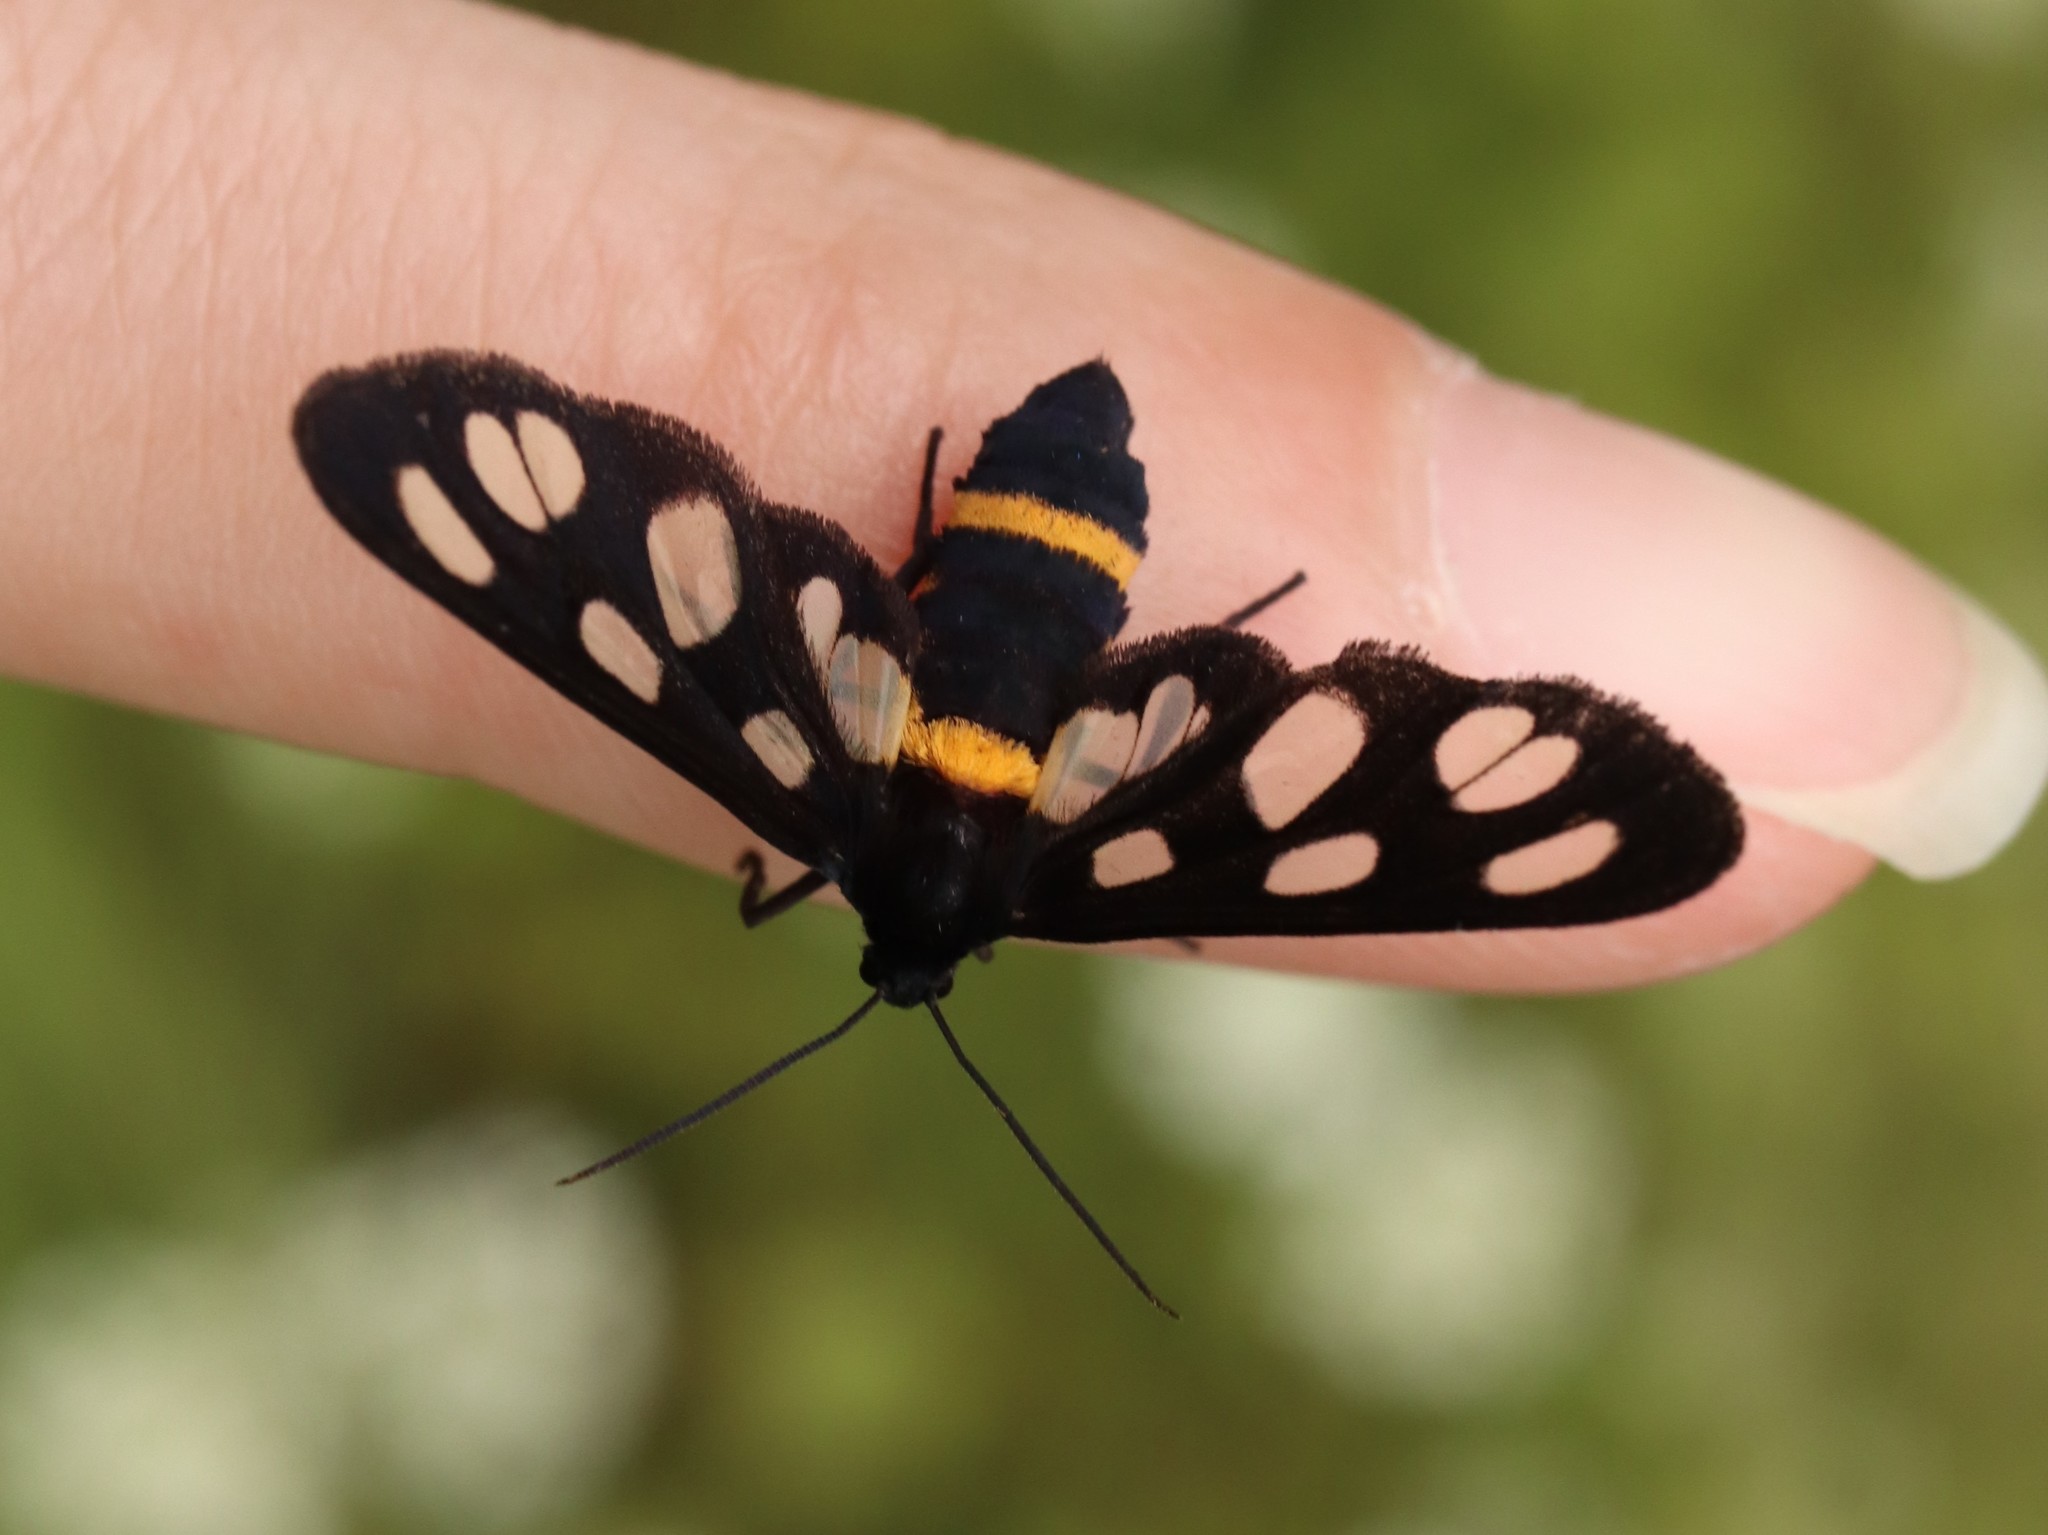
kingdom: Animalia
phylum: Arthropoda
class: Insecta
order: Lepidoptera
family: Erebidae
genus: Amata
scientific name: Amata fortunei
